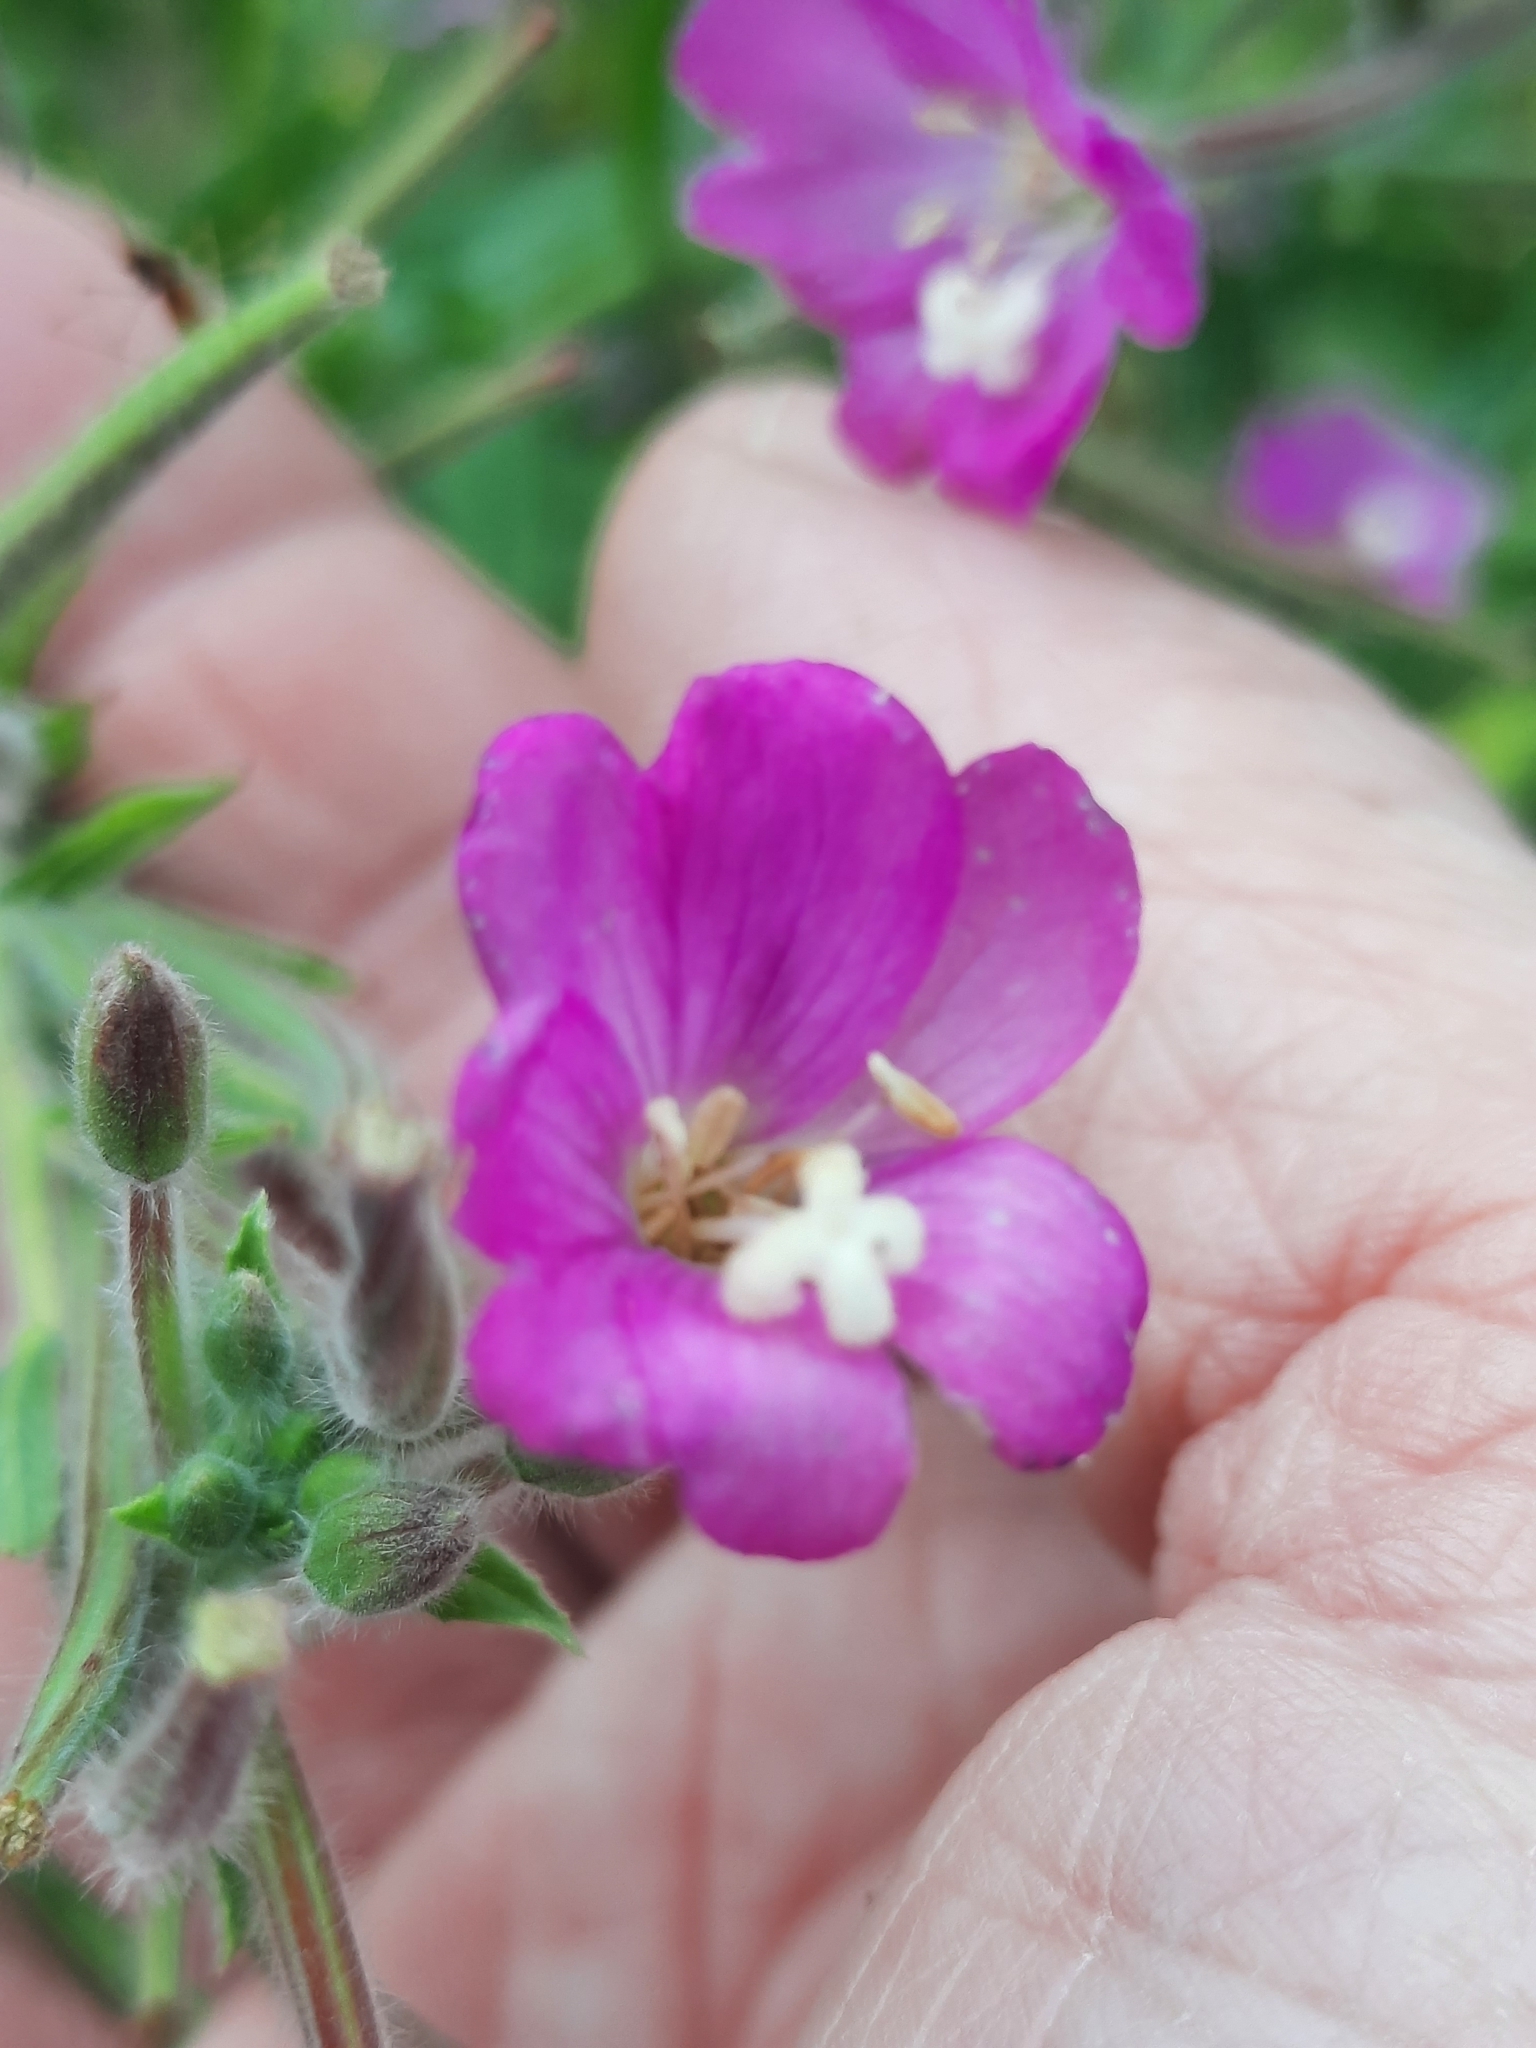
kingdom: Plantae
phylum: Tracheophyta
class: Magnoliopsida
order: Myrtales
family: Onagraceae
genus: Epilobium
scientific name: Epilobium hirsutum
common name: Great willowherb
